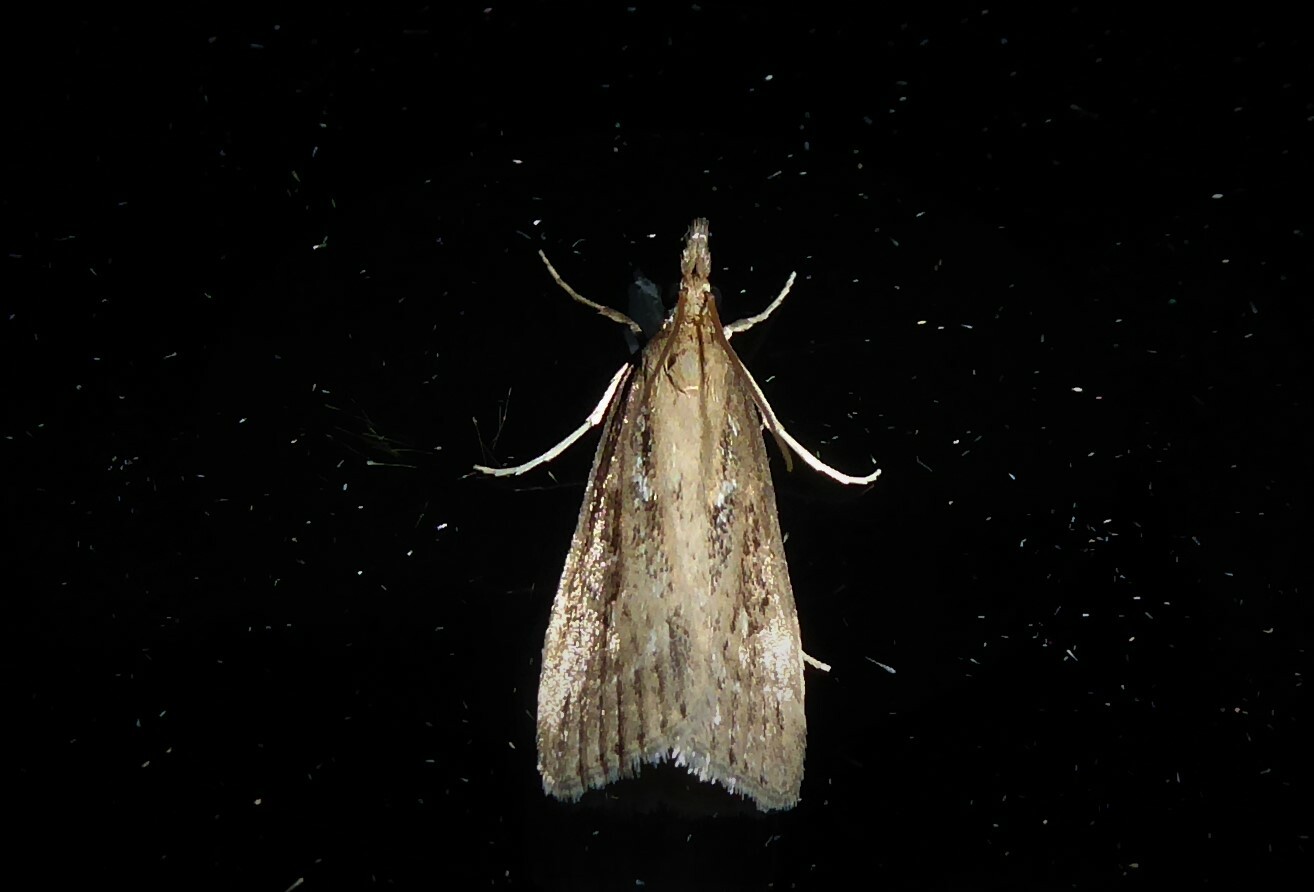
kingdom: Animalia
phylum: Arthropoda
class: Insecta
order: Lepidoptera
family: Crambidae
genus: Eudonia
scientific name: Eudonia octophora
